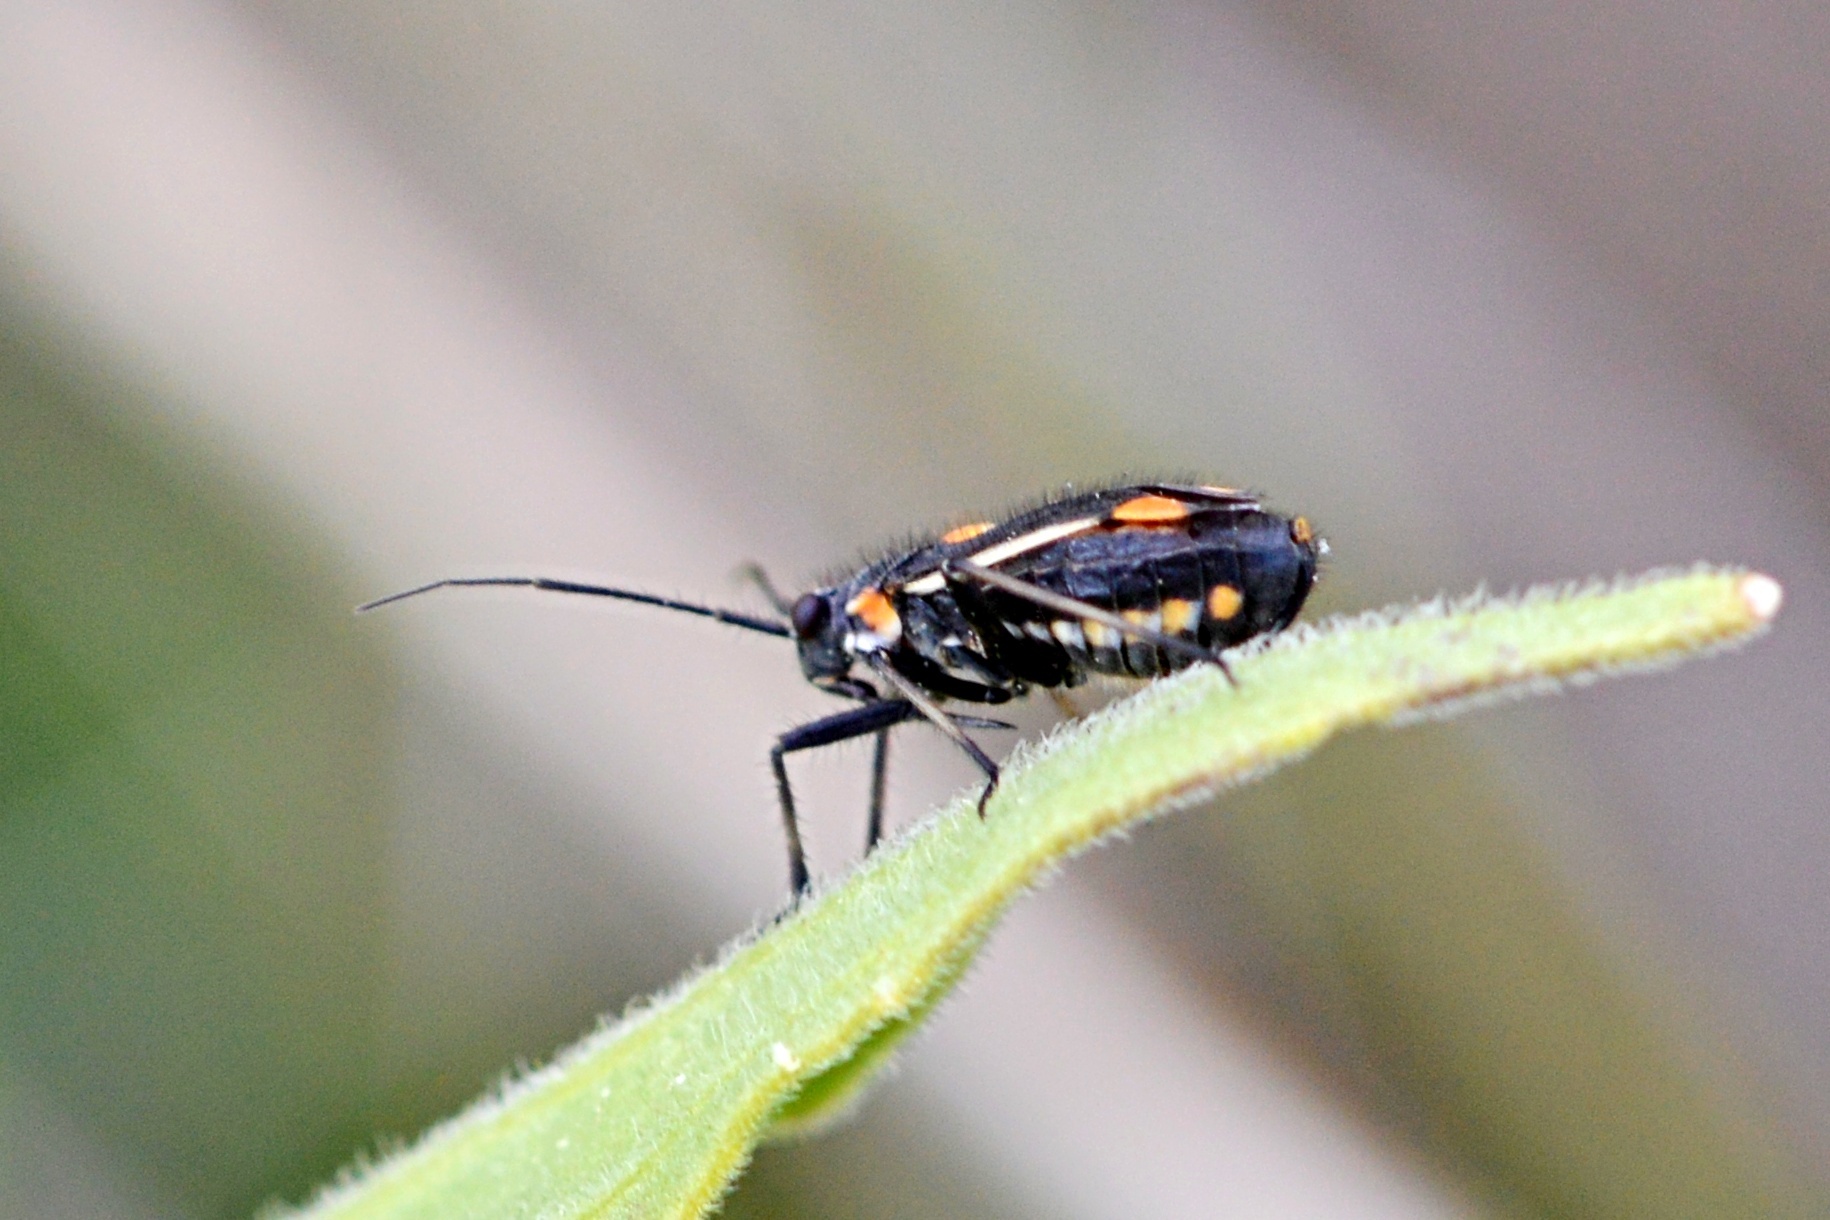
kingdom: Animalia
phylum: Arthropoda
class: Insecta
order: Hemiptera
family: Miridae
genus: Capsodes
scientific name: Capsodes gothicus
